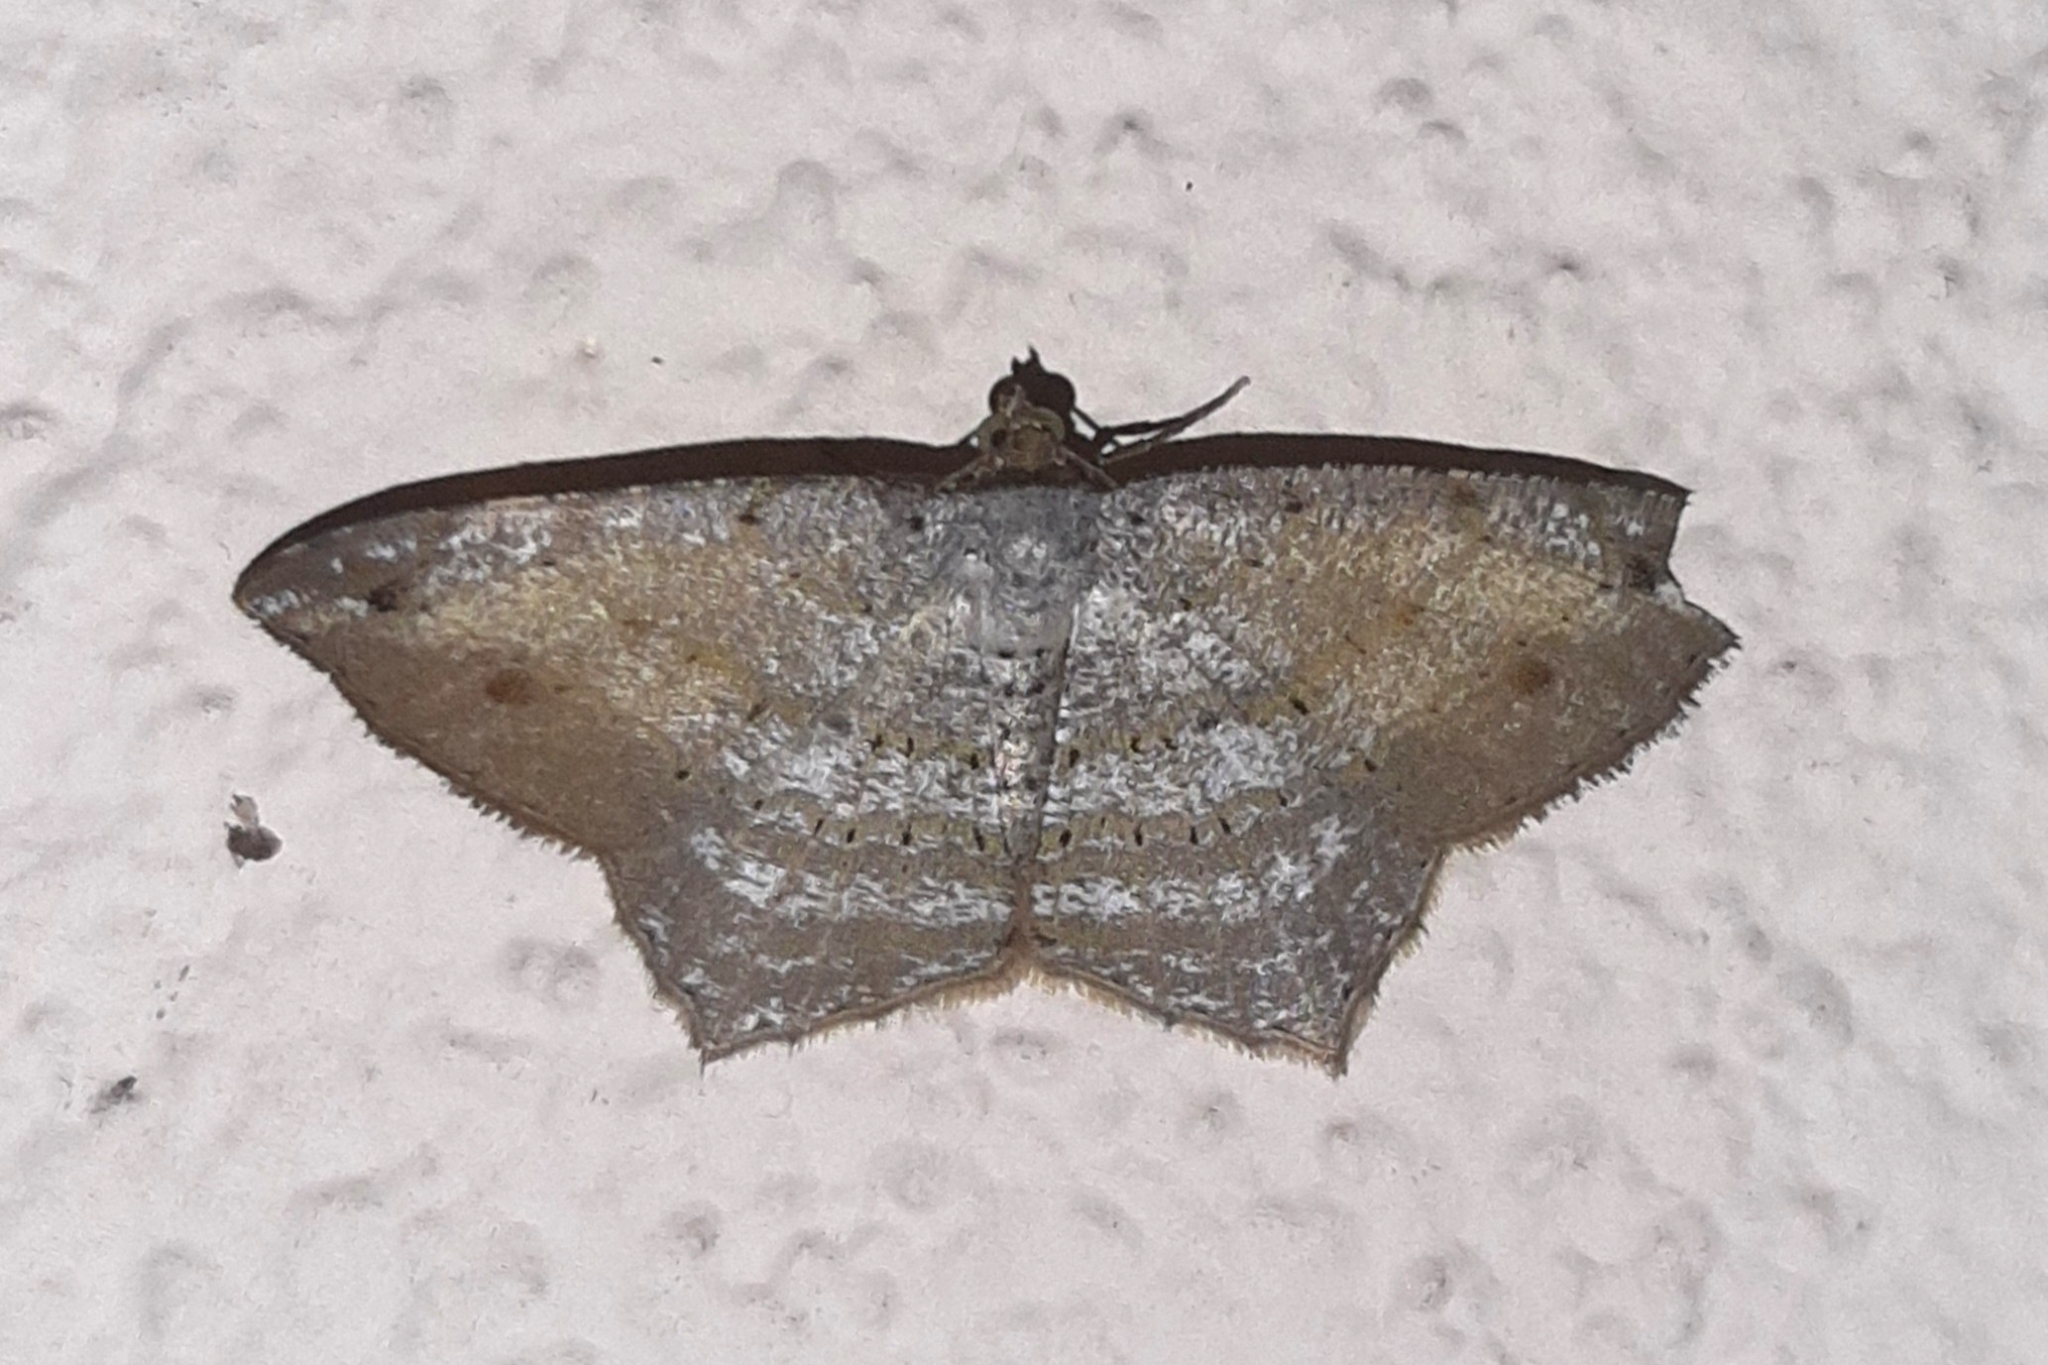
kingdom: Animalia
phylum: Arthropoda
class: Insecta
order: Lepidoptera
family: Geometridae
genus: Macaria
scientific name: Macaria
